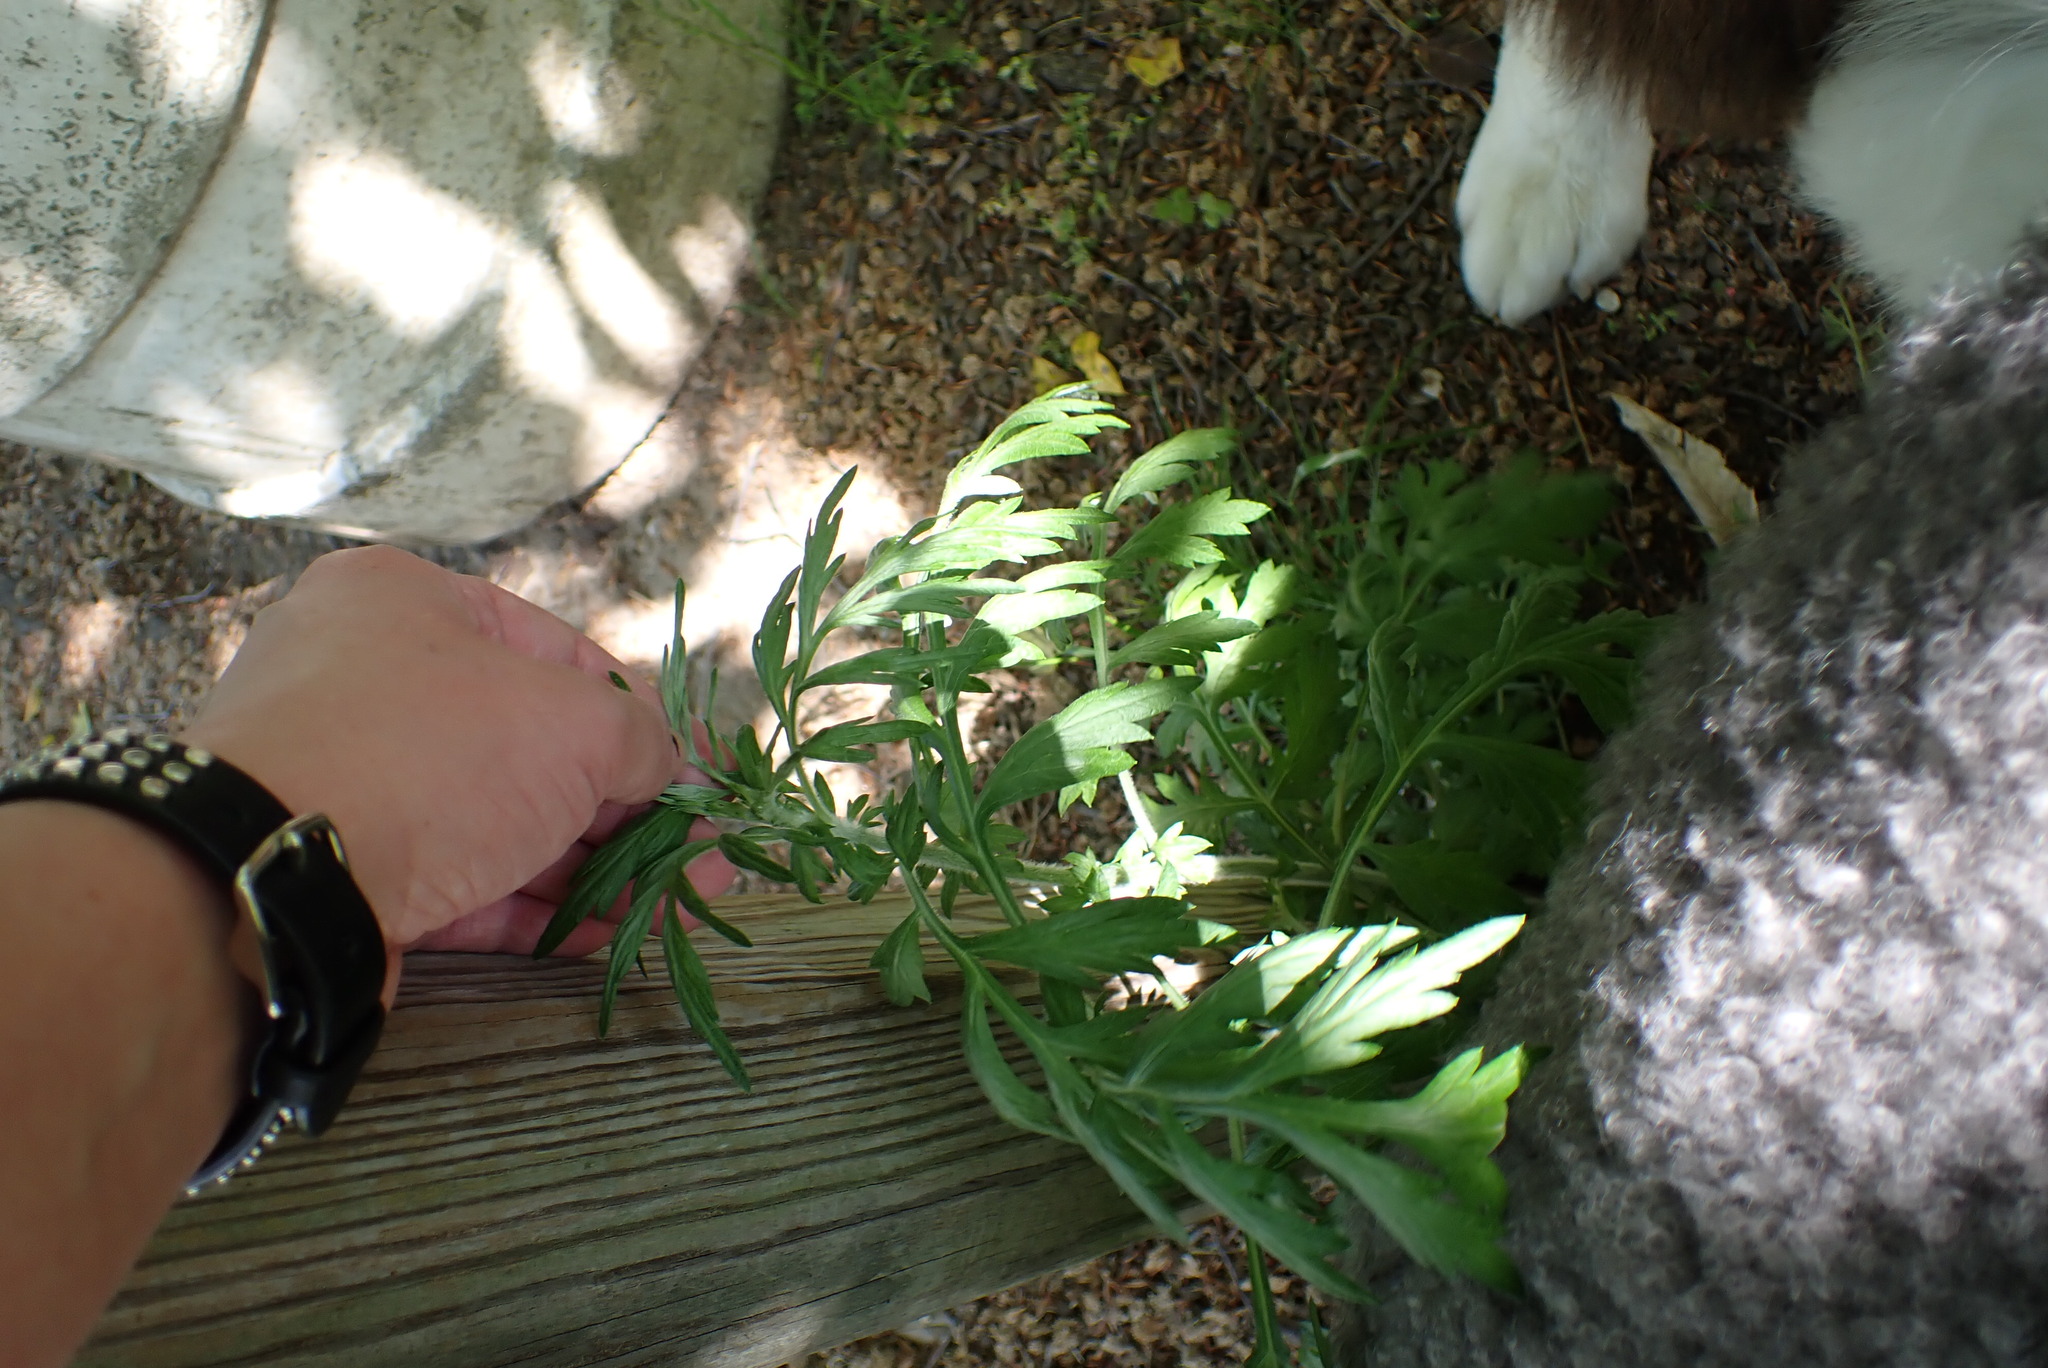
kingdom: Plantae
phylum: Tracheophyta
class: Magnoliopsida
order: Asterales
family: Asteraceae
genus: Artemisia
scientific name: Artemisia vulgaris
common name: Mugwort
